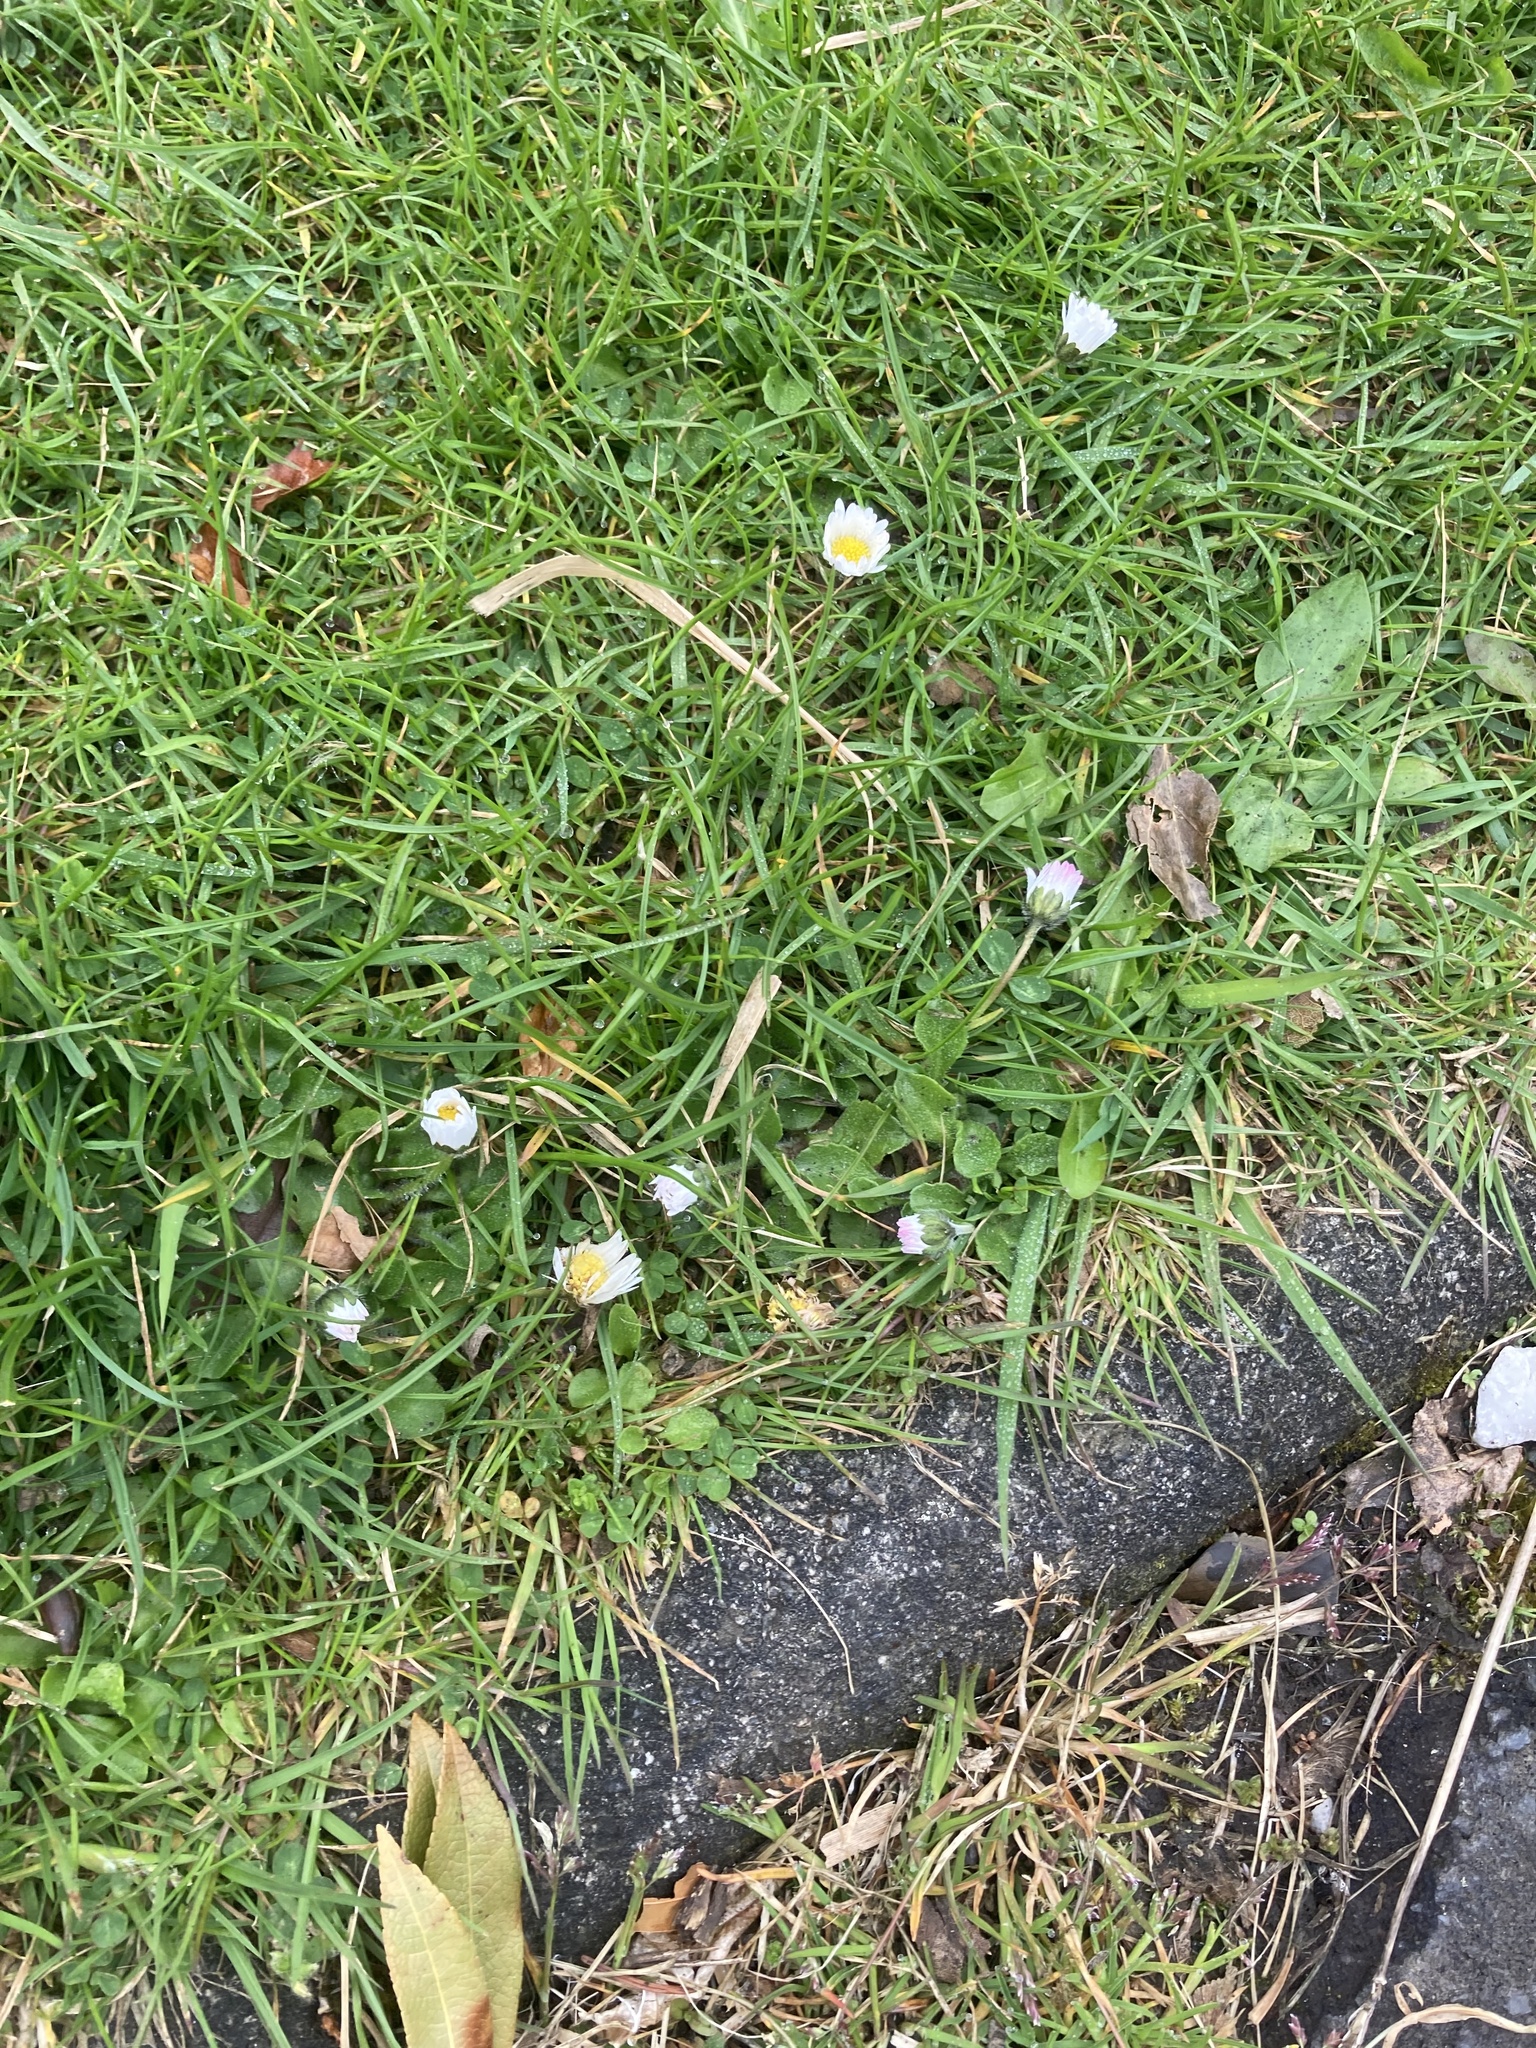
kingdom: Plantae
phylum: Tracheophyta
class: Magnoliopsida
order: Asterales
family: Asteraceae
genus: Bellis
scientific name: Bellis perennis
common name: Lawndaisy
